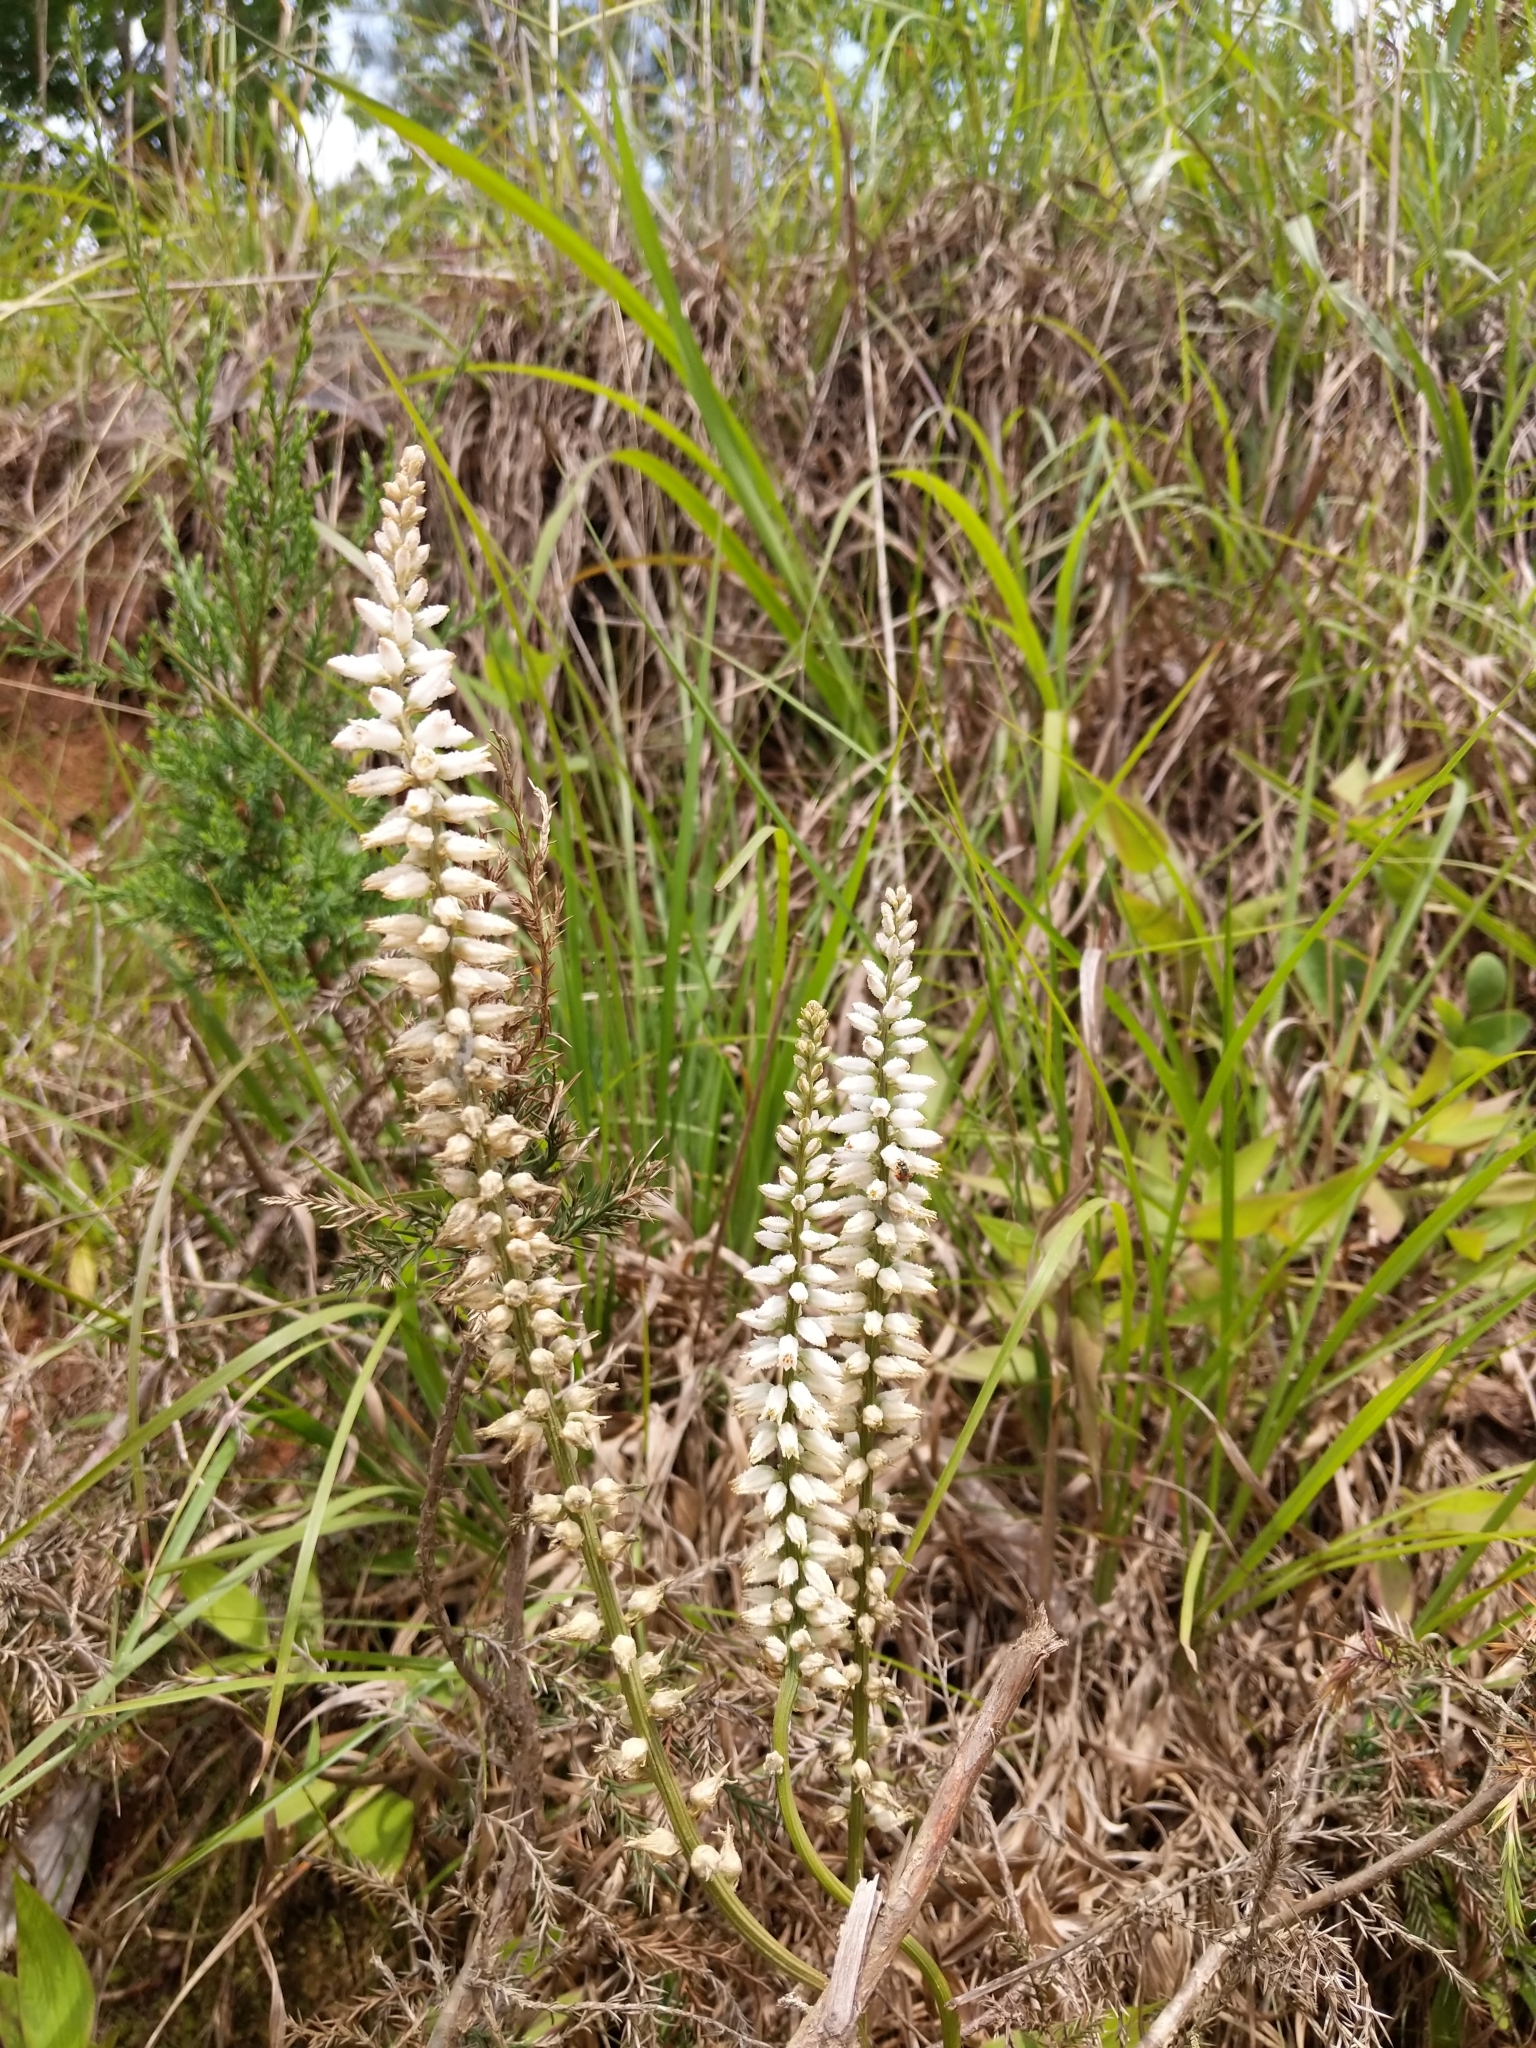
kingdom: Plantae
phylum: Tracheophyta
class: Liliopsida
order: Dioscoreales
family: Nartheciaceae
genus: Aletris
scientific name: Aletris farinosa
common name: Colicroot
